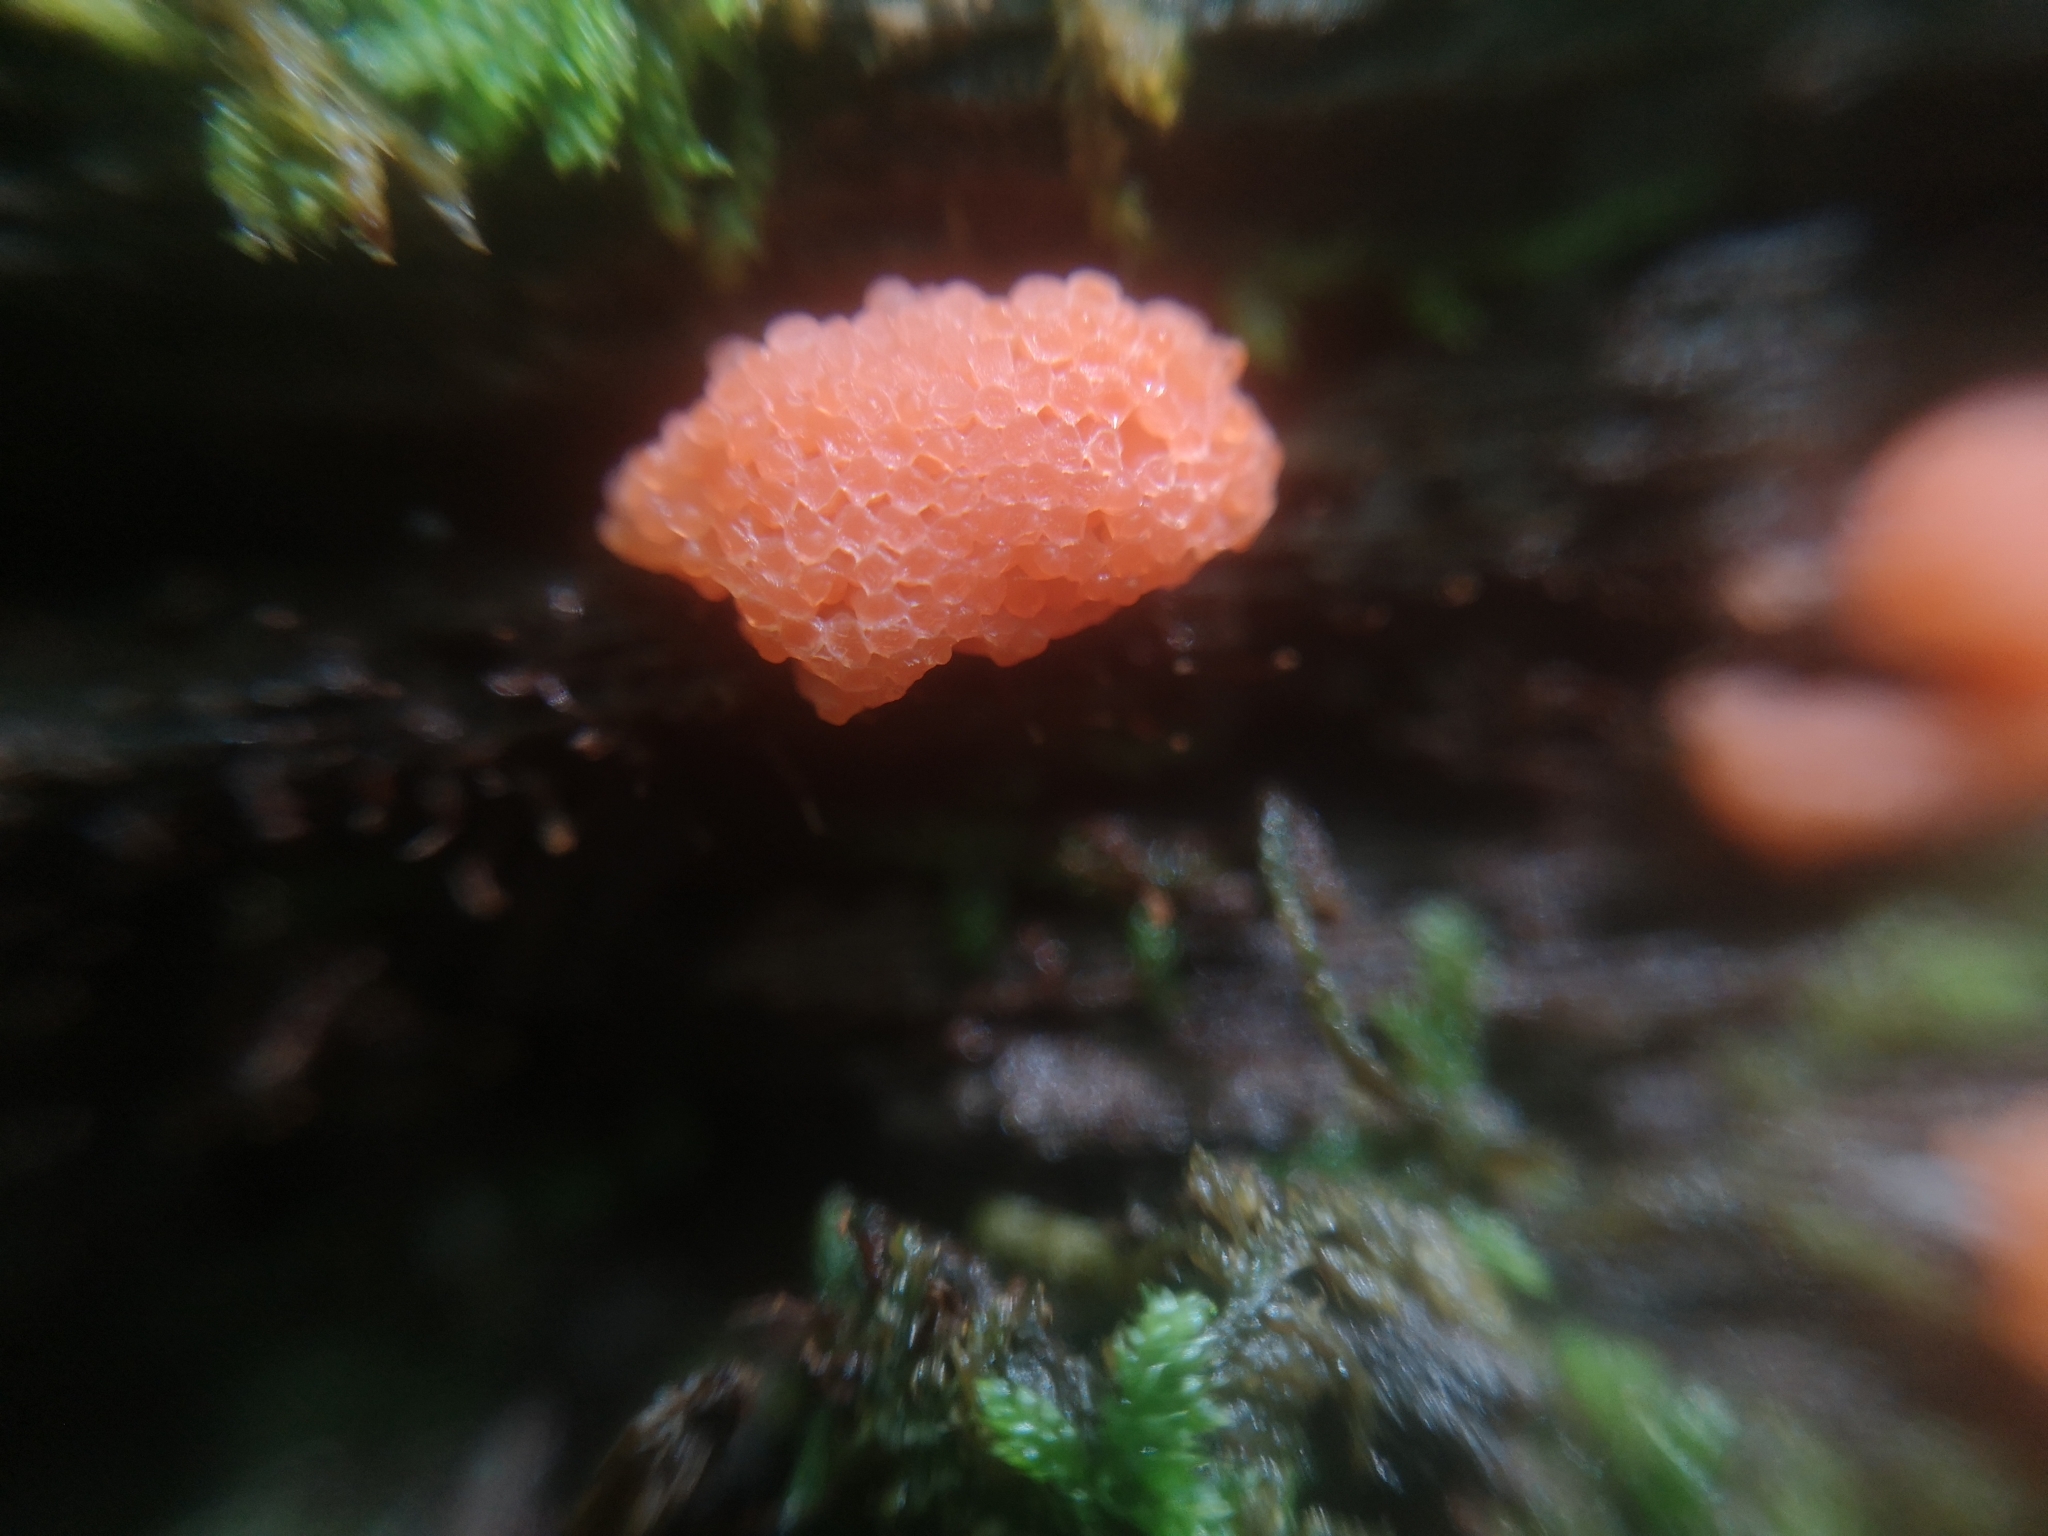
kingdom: Protozoa
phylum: Mycetozoa
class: Myxomycetes
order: Cribrariales
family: Tubiferaceae
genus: Tubifera
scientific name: Tubifera ferruginosa
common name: Red raspberry slime mold
